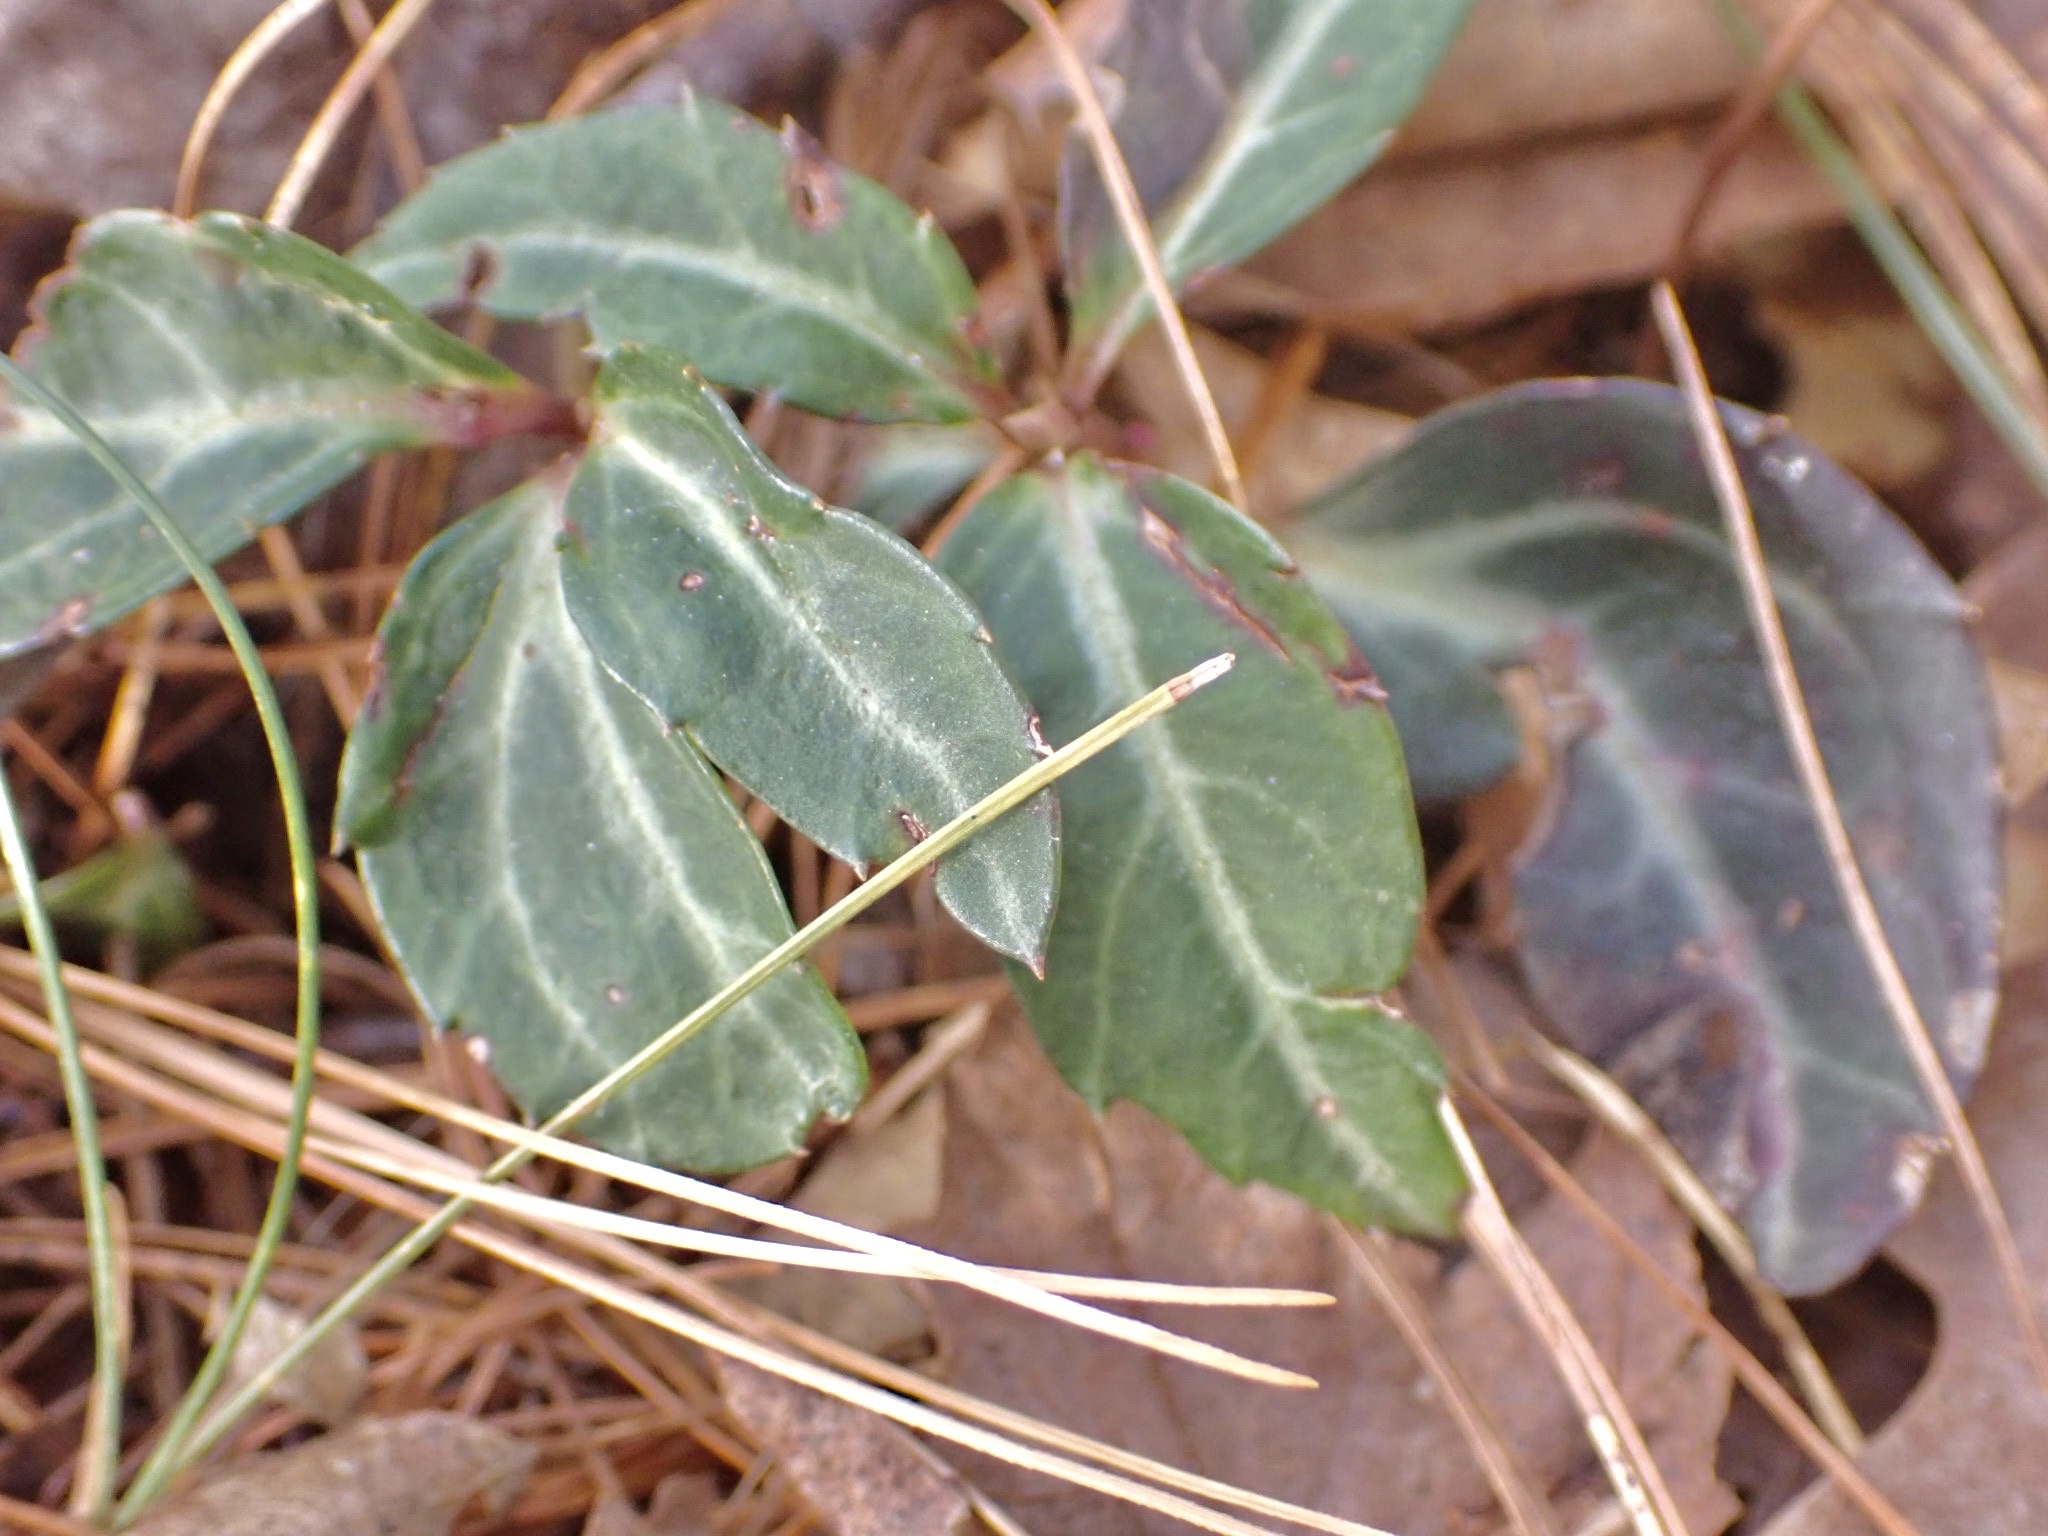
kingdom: Plantae
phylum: Tracheophyta
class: Magnoliopsida
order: Ericales
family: Ericaceae
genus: Chimaphila
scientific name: Chimaphila maculata
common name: Spotted pipsissewa
